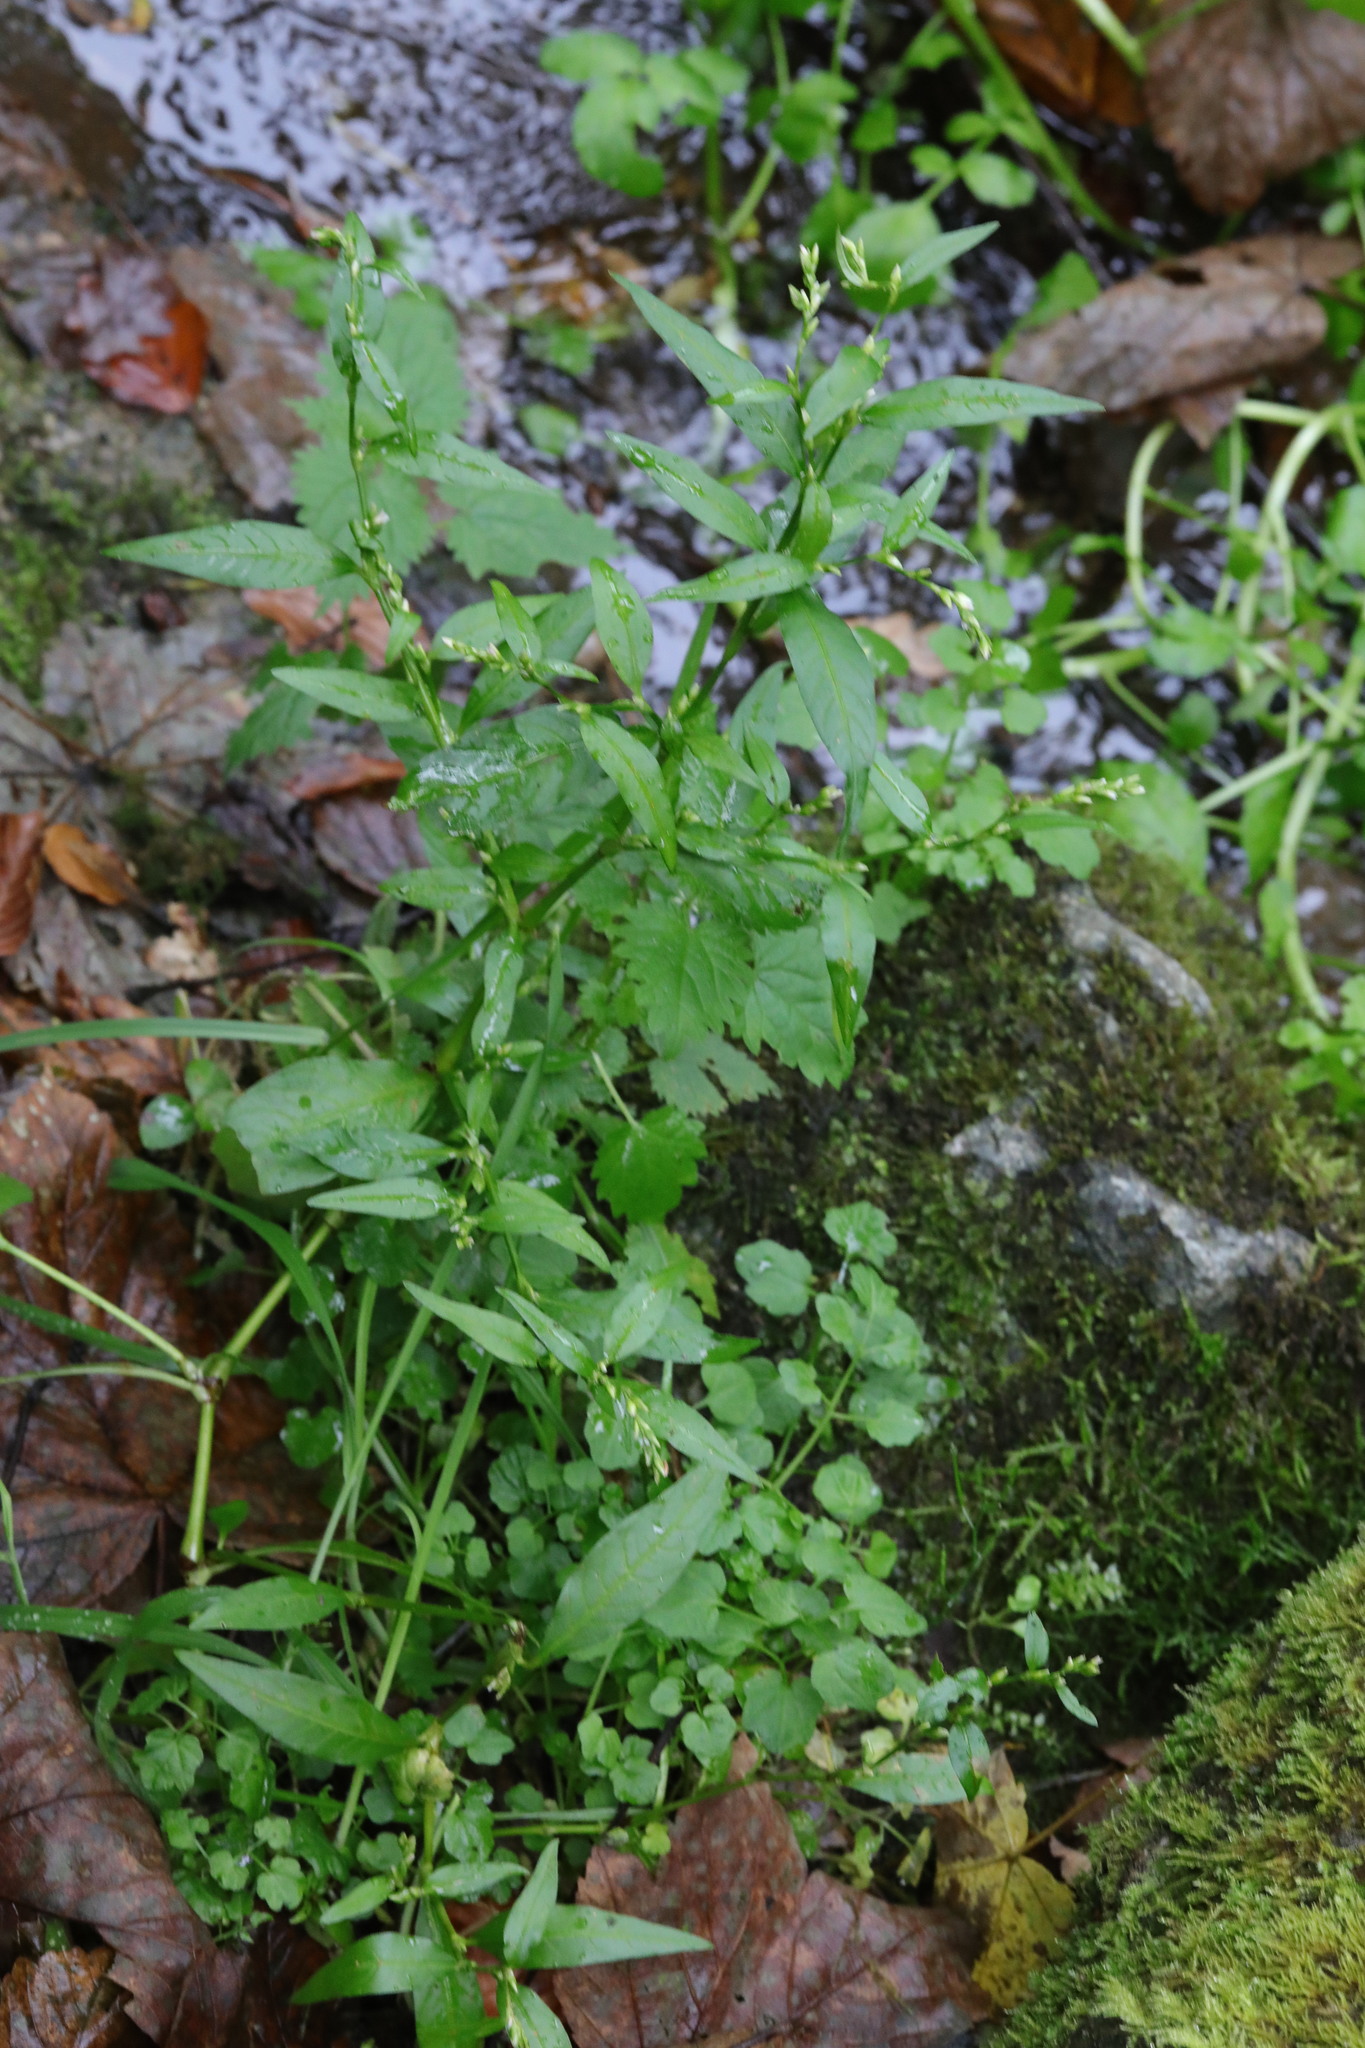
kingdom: Plantae
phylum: Tracheophyta
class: Magnoliopsida
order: Caryophyllales
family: Polygonaceae
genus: Persicaria
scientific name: Persicaria hydropiper
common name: Water-pepper
